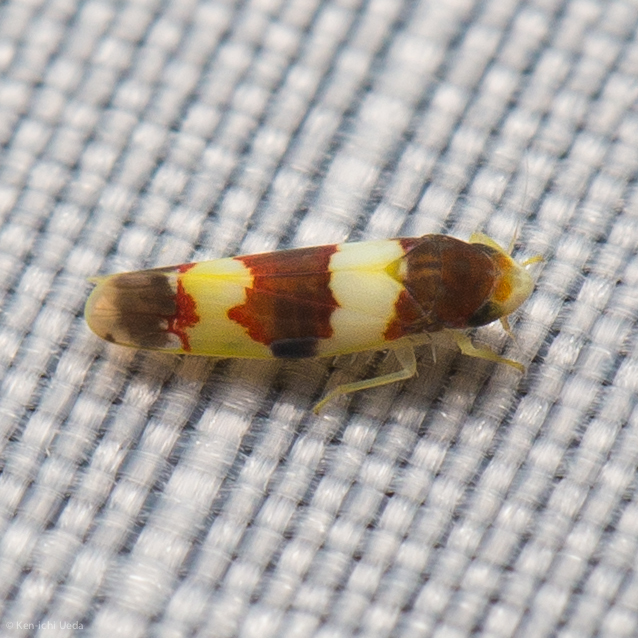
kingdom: Animalia
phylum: Arthropoda
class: Insecta
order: Hemiptera
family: Cicadellidae
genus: Erythroneura
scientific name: Erythroneura bistrata
